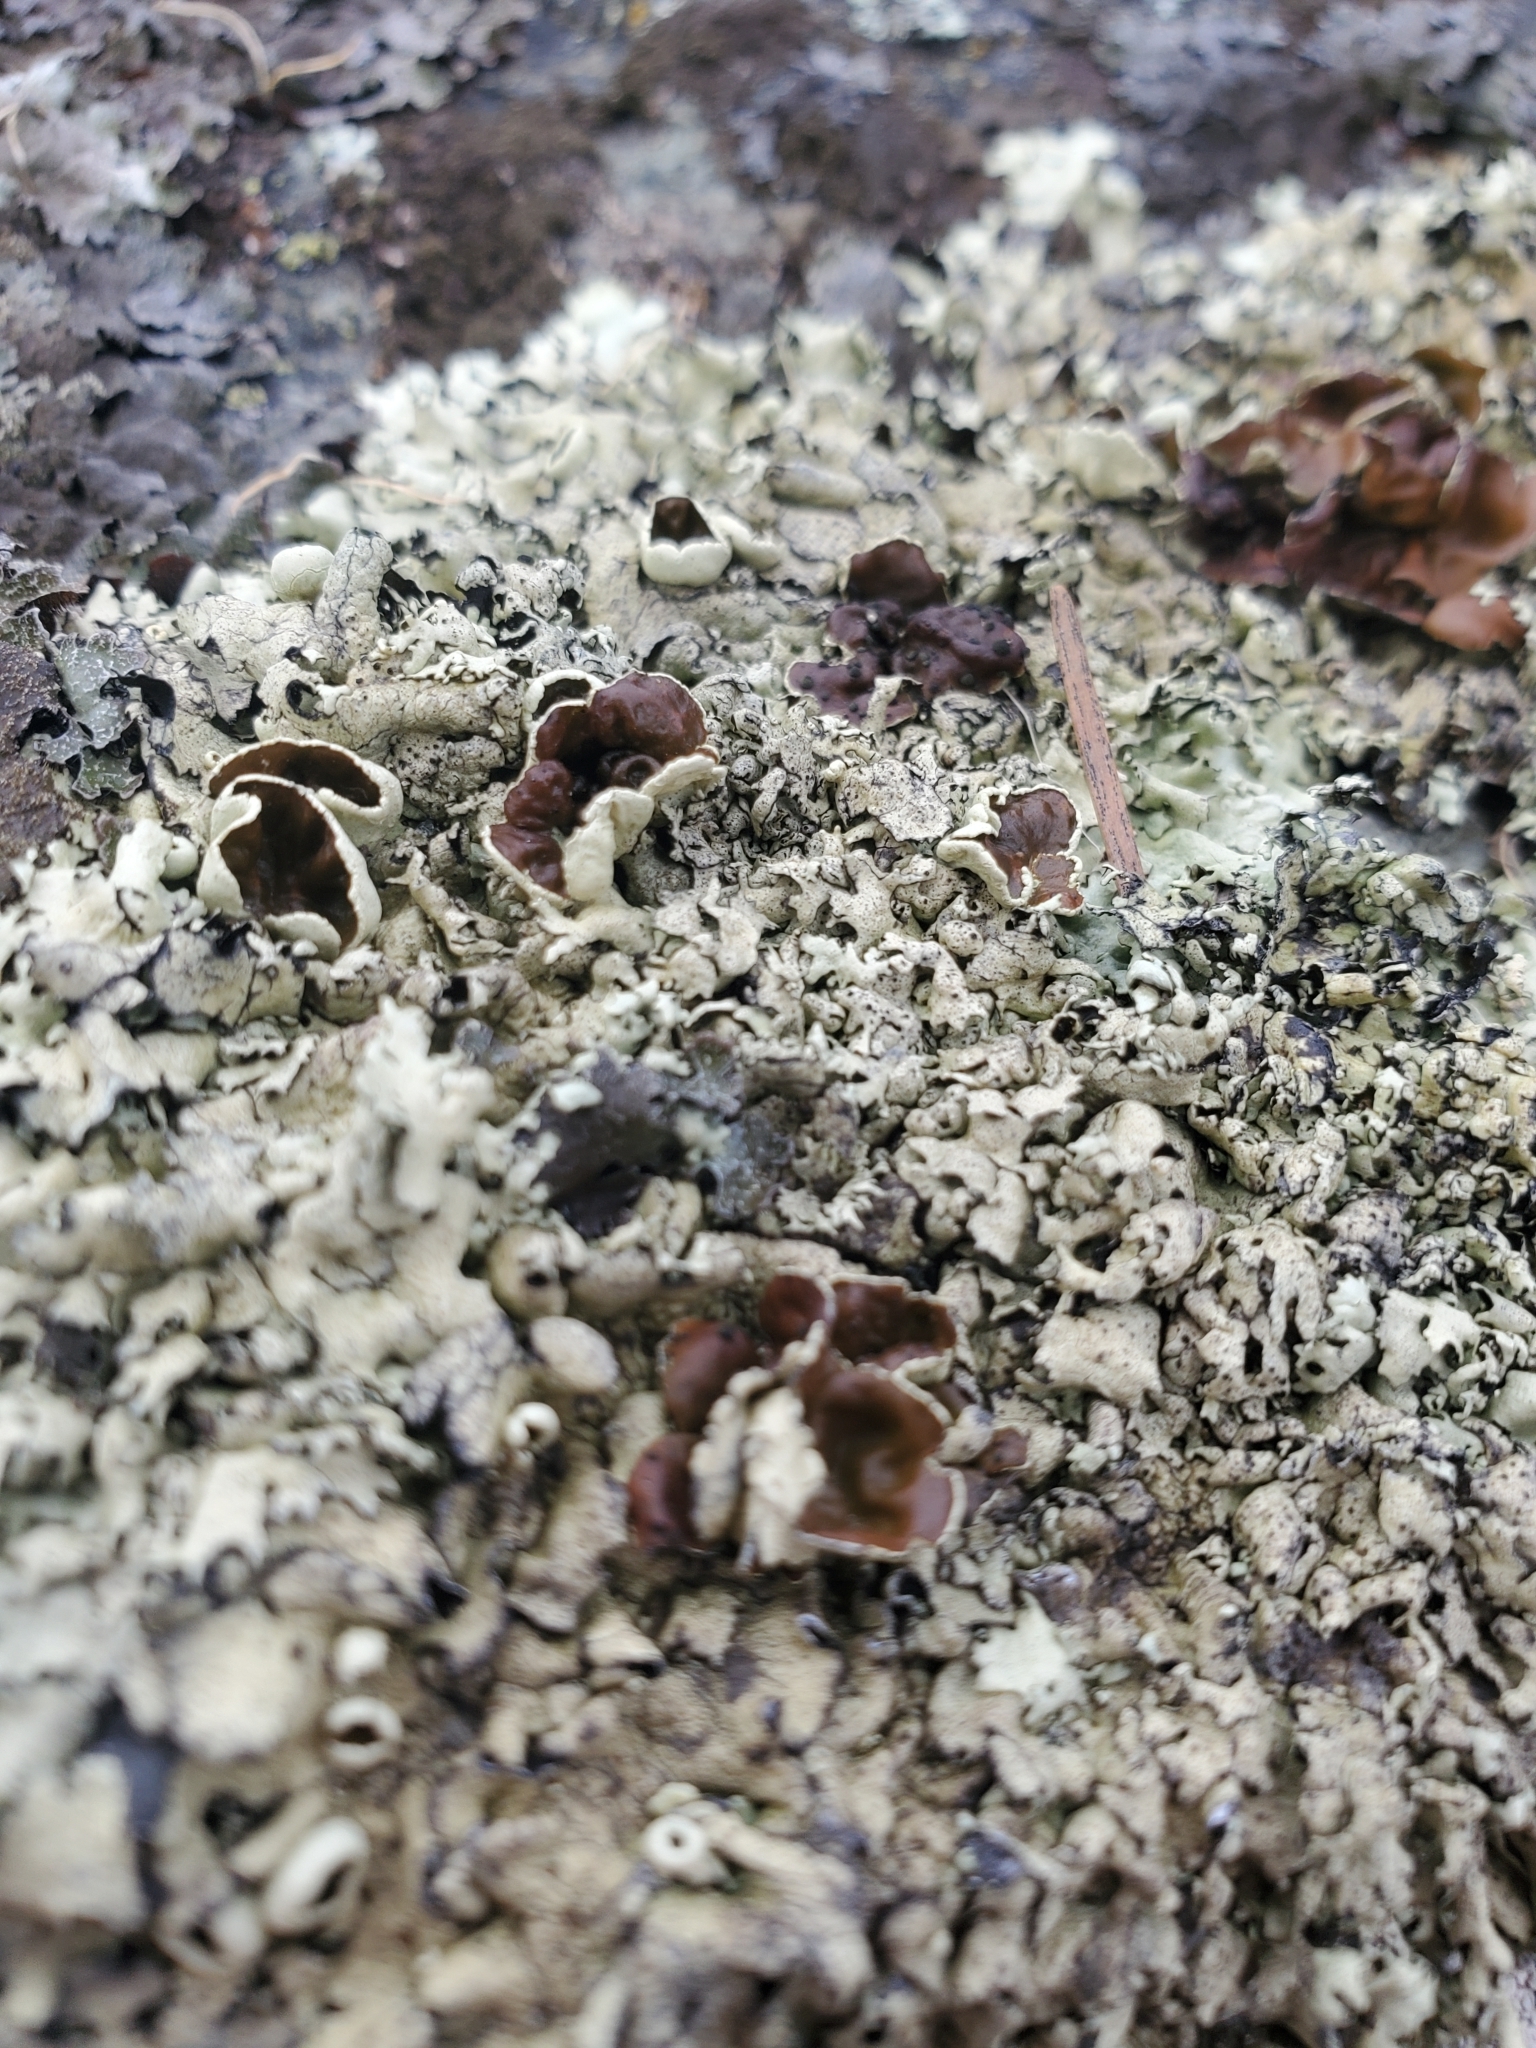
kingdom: Fungi
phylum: Ascomycota
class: Lecanoromycetes
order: Lecanorales
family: Parmeliaceae
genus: Xanthoparmelia
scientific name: Xanthoparmelia cumberlandia
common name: Cumberland rock shield
